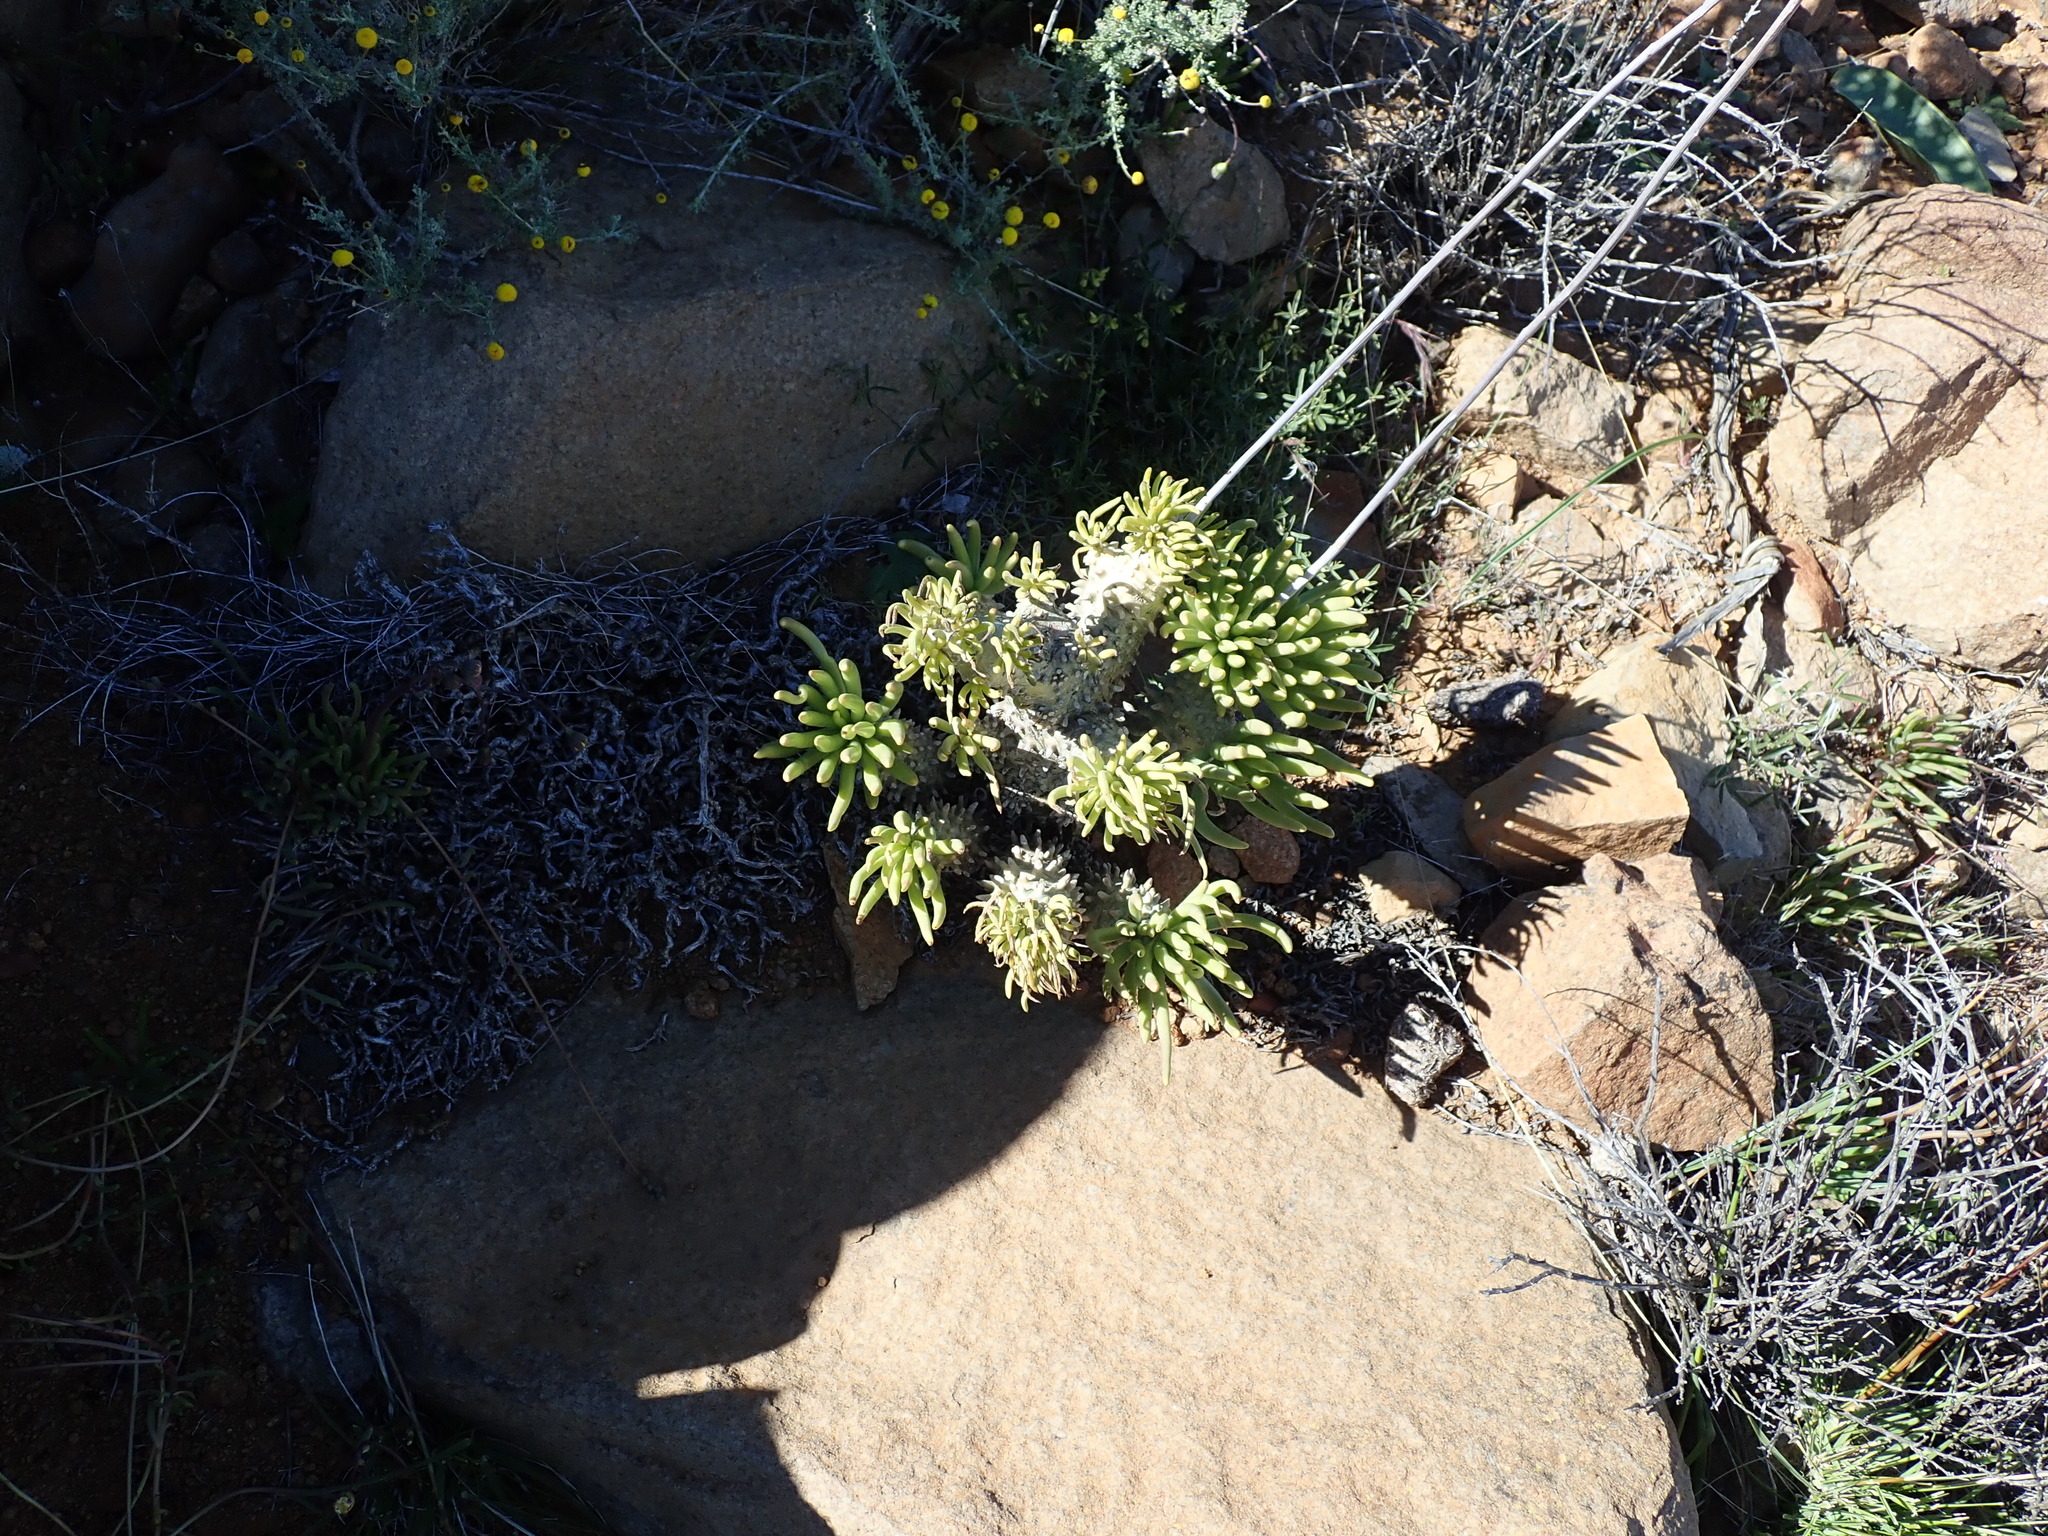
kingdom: Plantae
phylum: Tracheophyta
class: Magnoliopsida
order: Saxifragales
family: Crassulaceae
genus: Tylecodon
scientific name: Tylecodon wallichii
